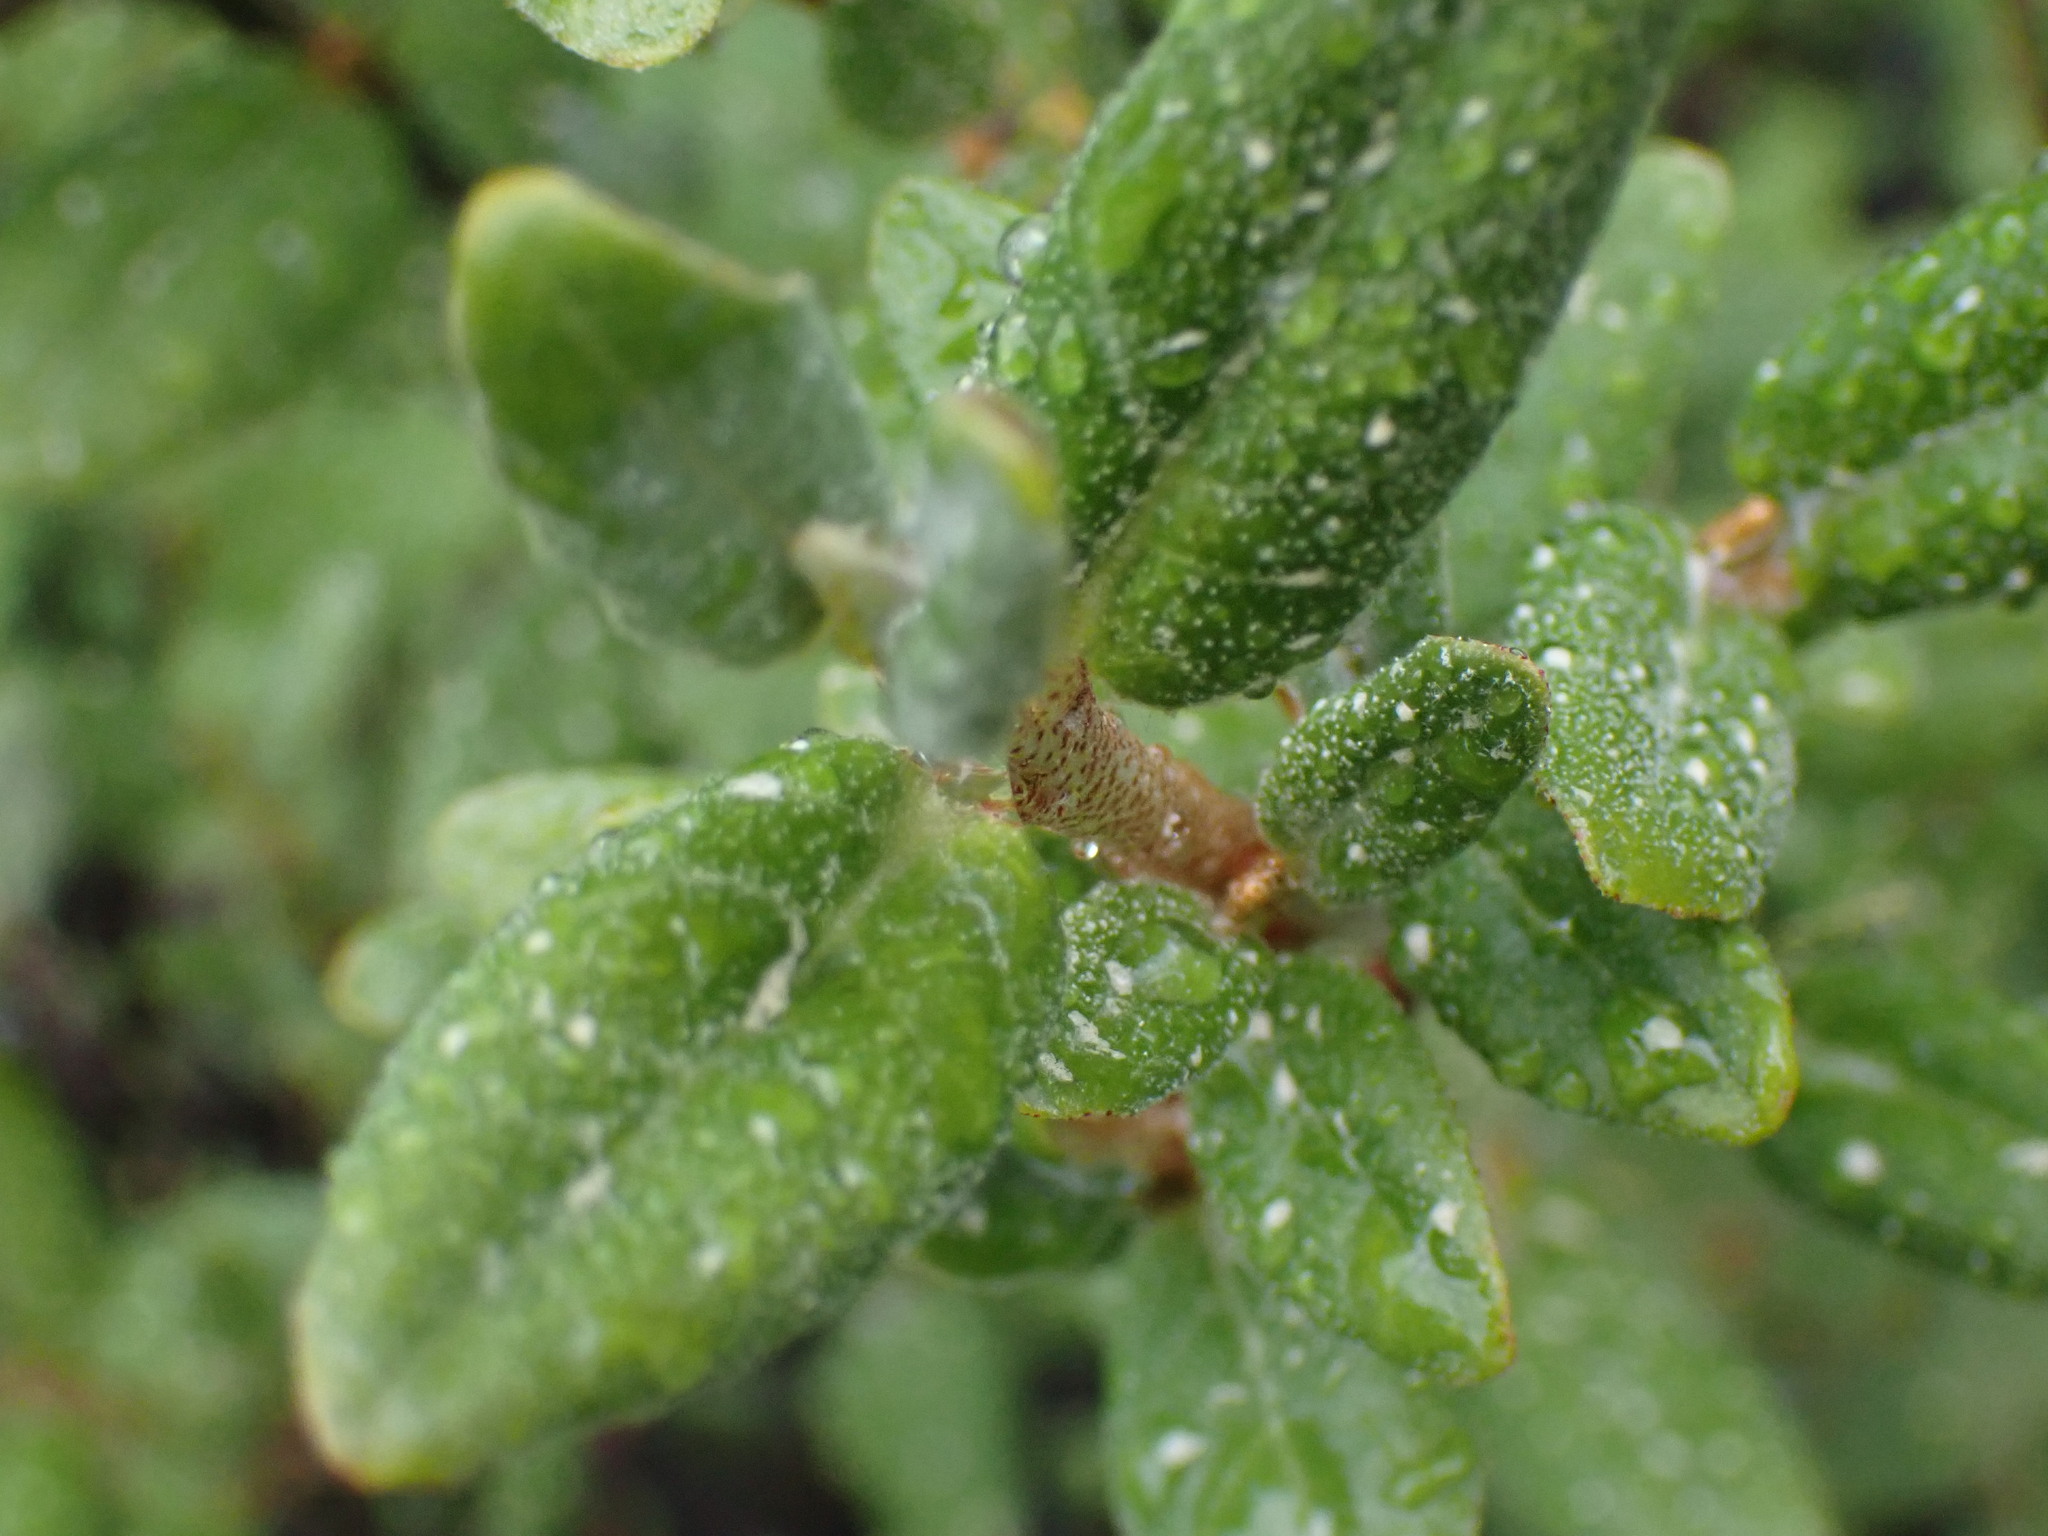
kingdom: Plantae
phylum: Tracheophyta
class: Magnoliopsida
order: Rosales
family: Elaeagnaceae
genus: Shepherdia
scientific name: Shepherdia canadensis
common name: Soapberry
